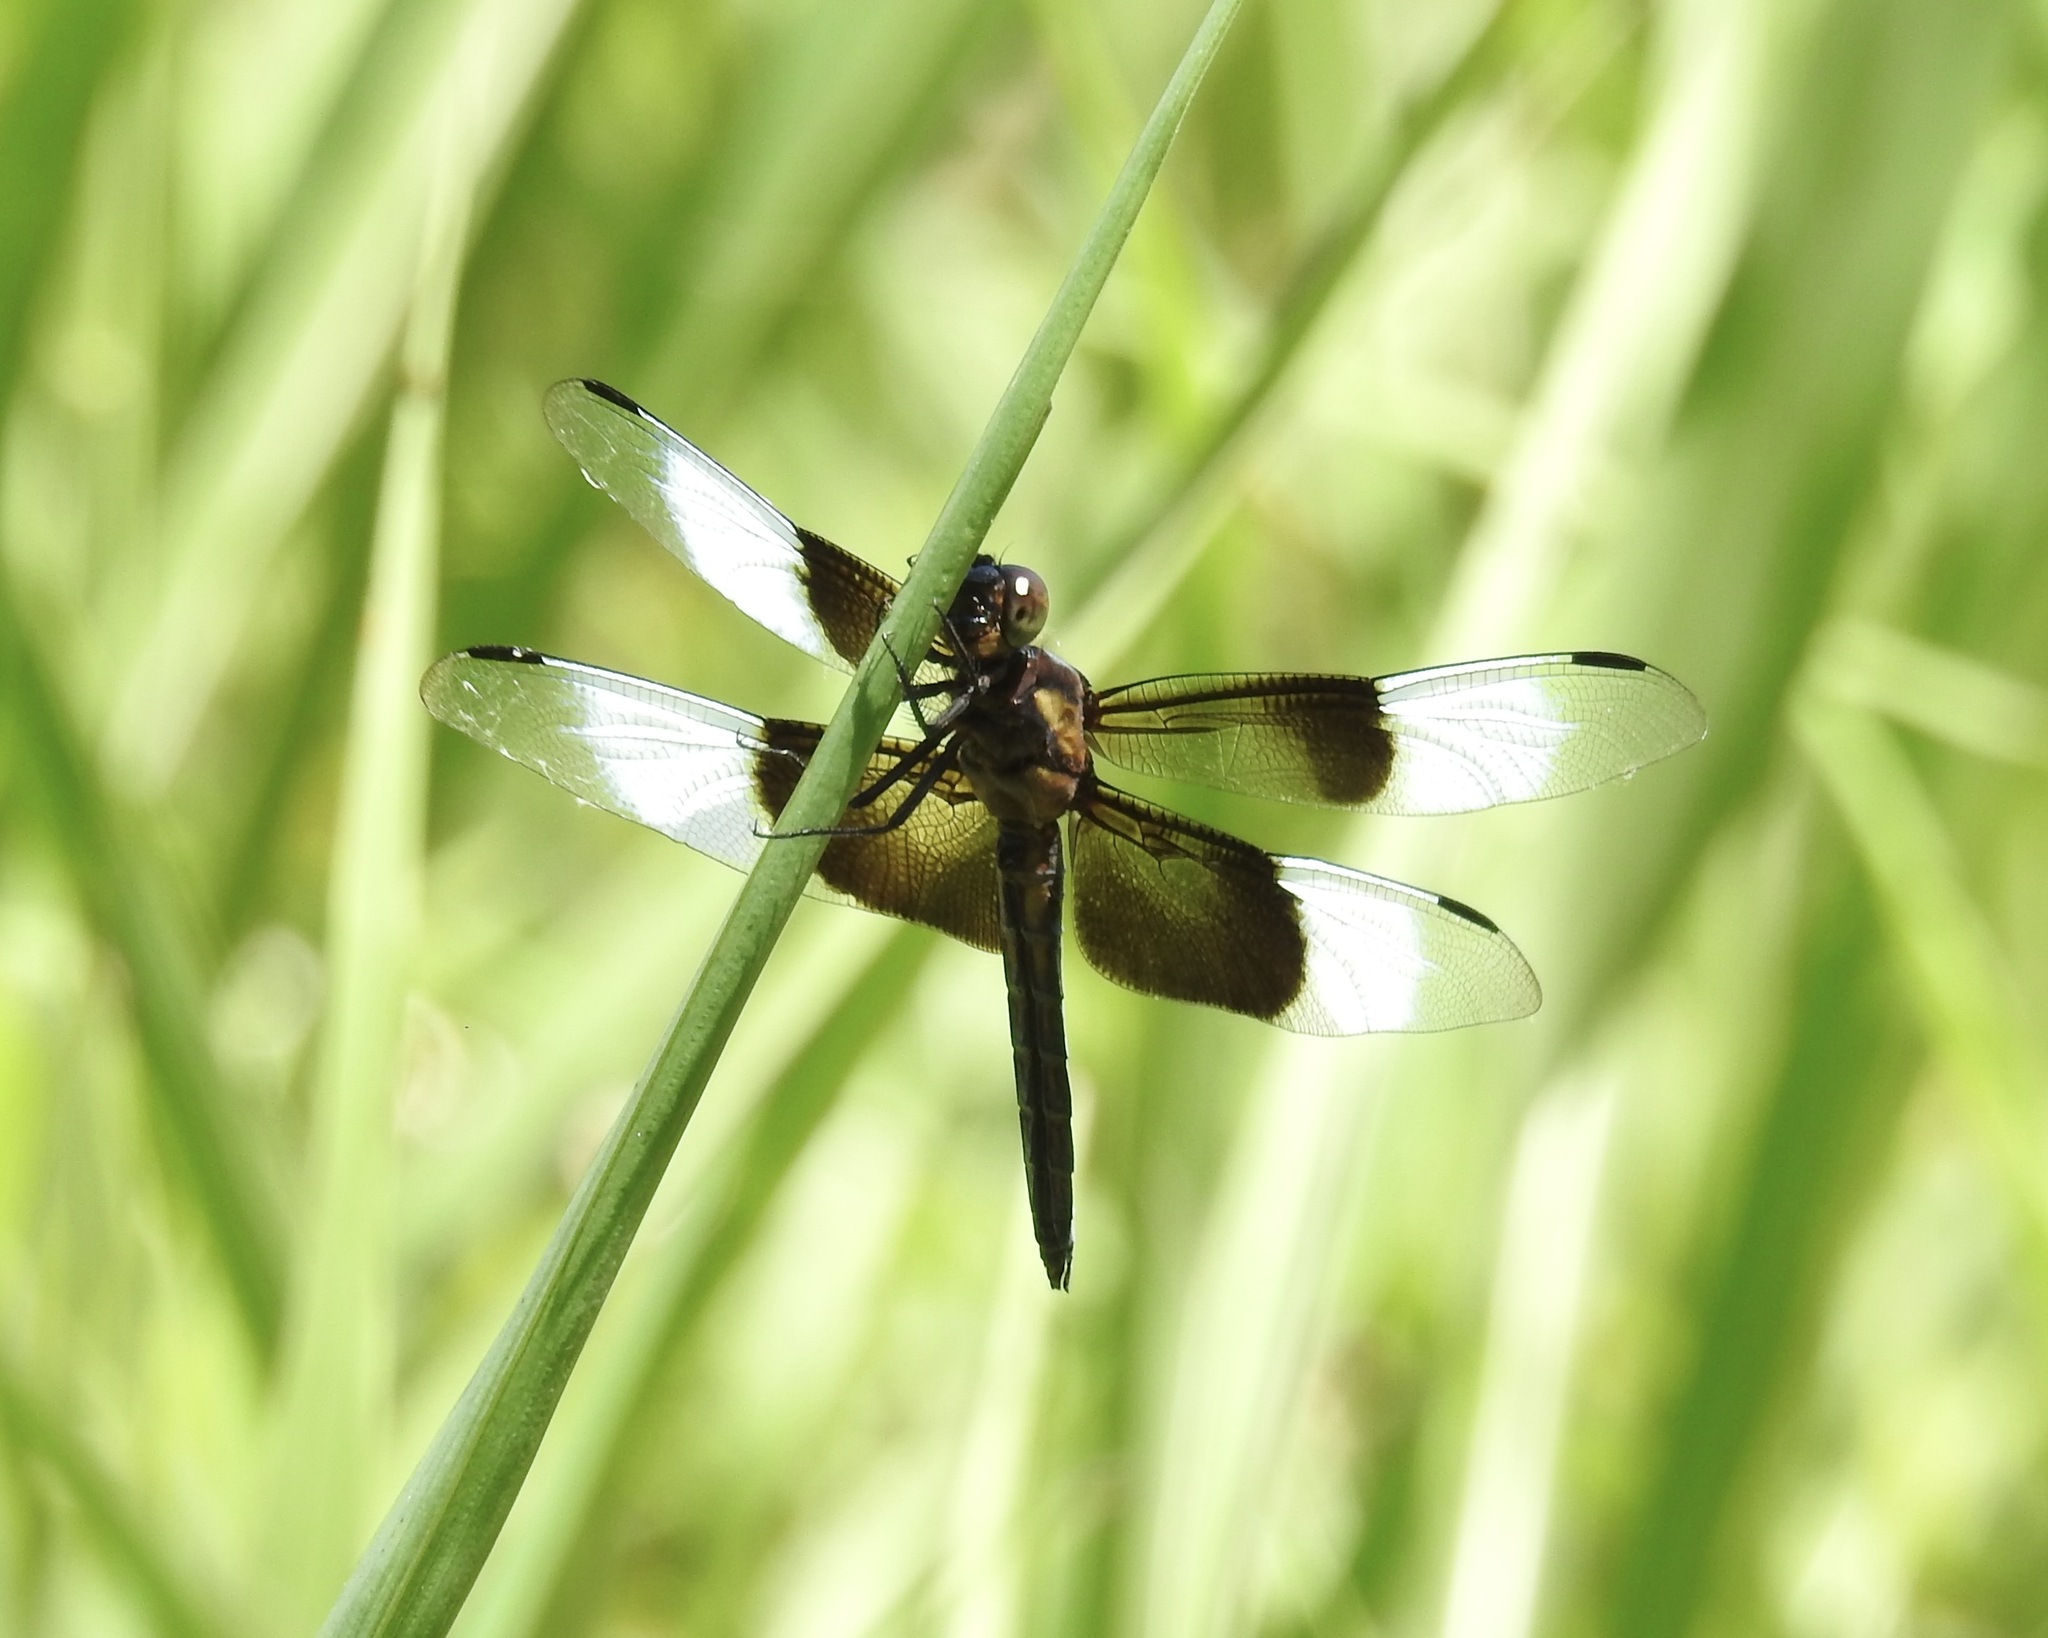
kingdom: Animalia
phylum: Arthropoda
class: Insecta
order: Odonata
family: Libellulidae
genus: Libellula
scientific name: Libellula luctuosa
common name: Widow skimmer
